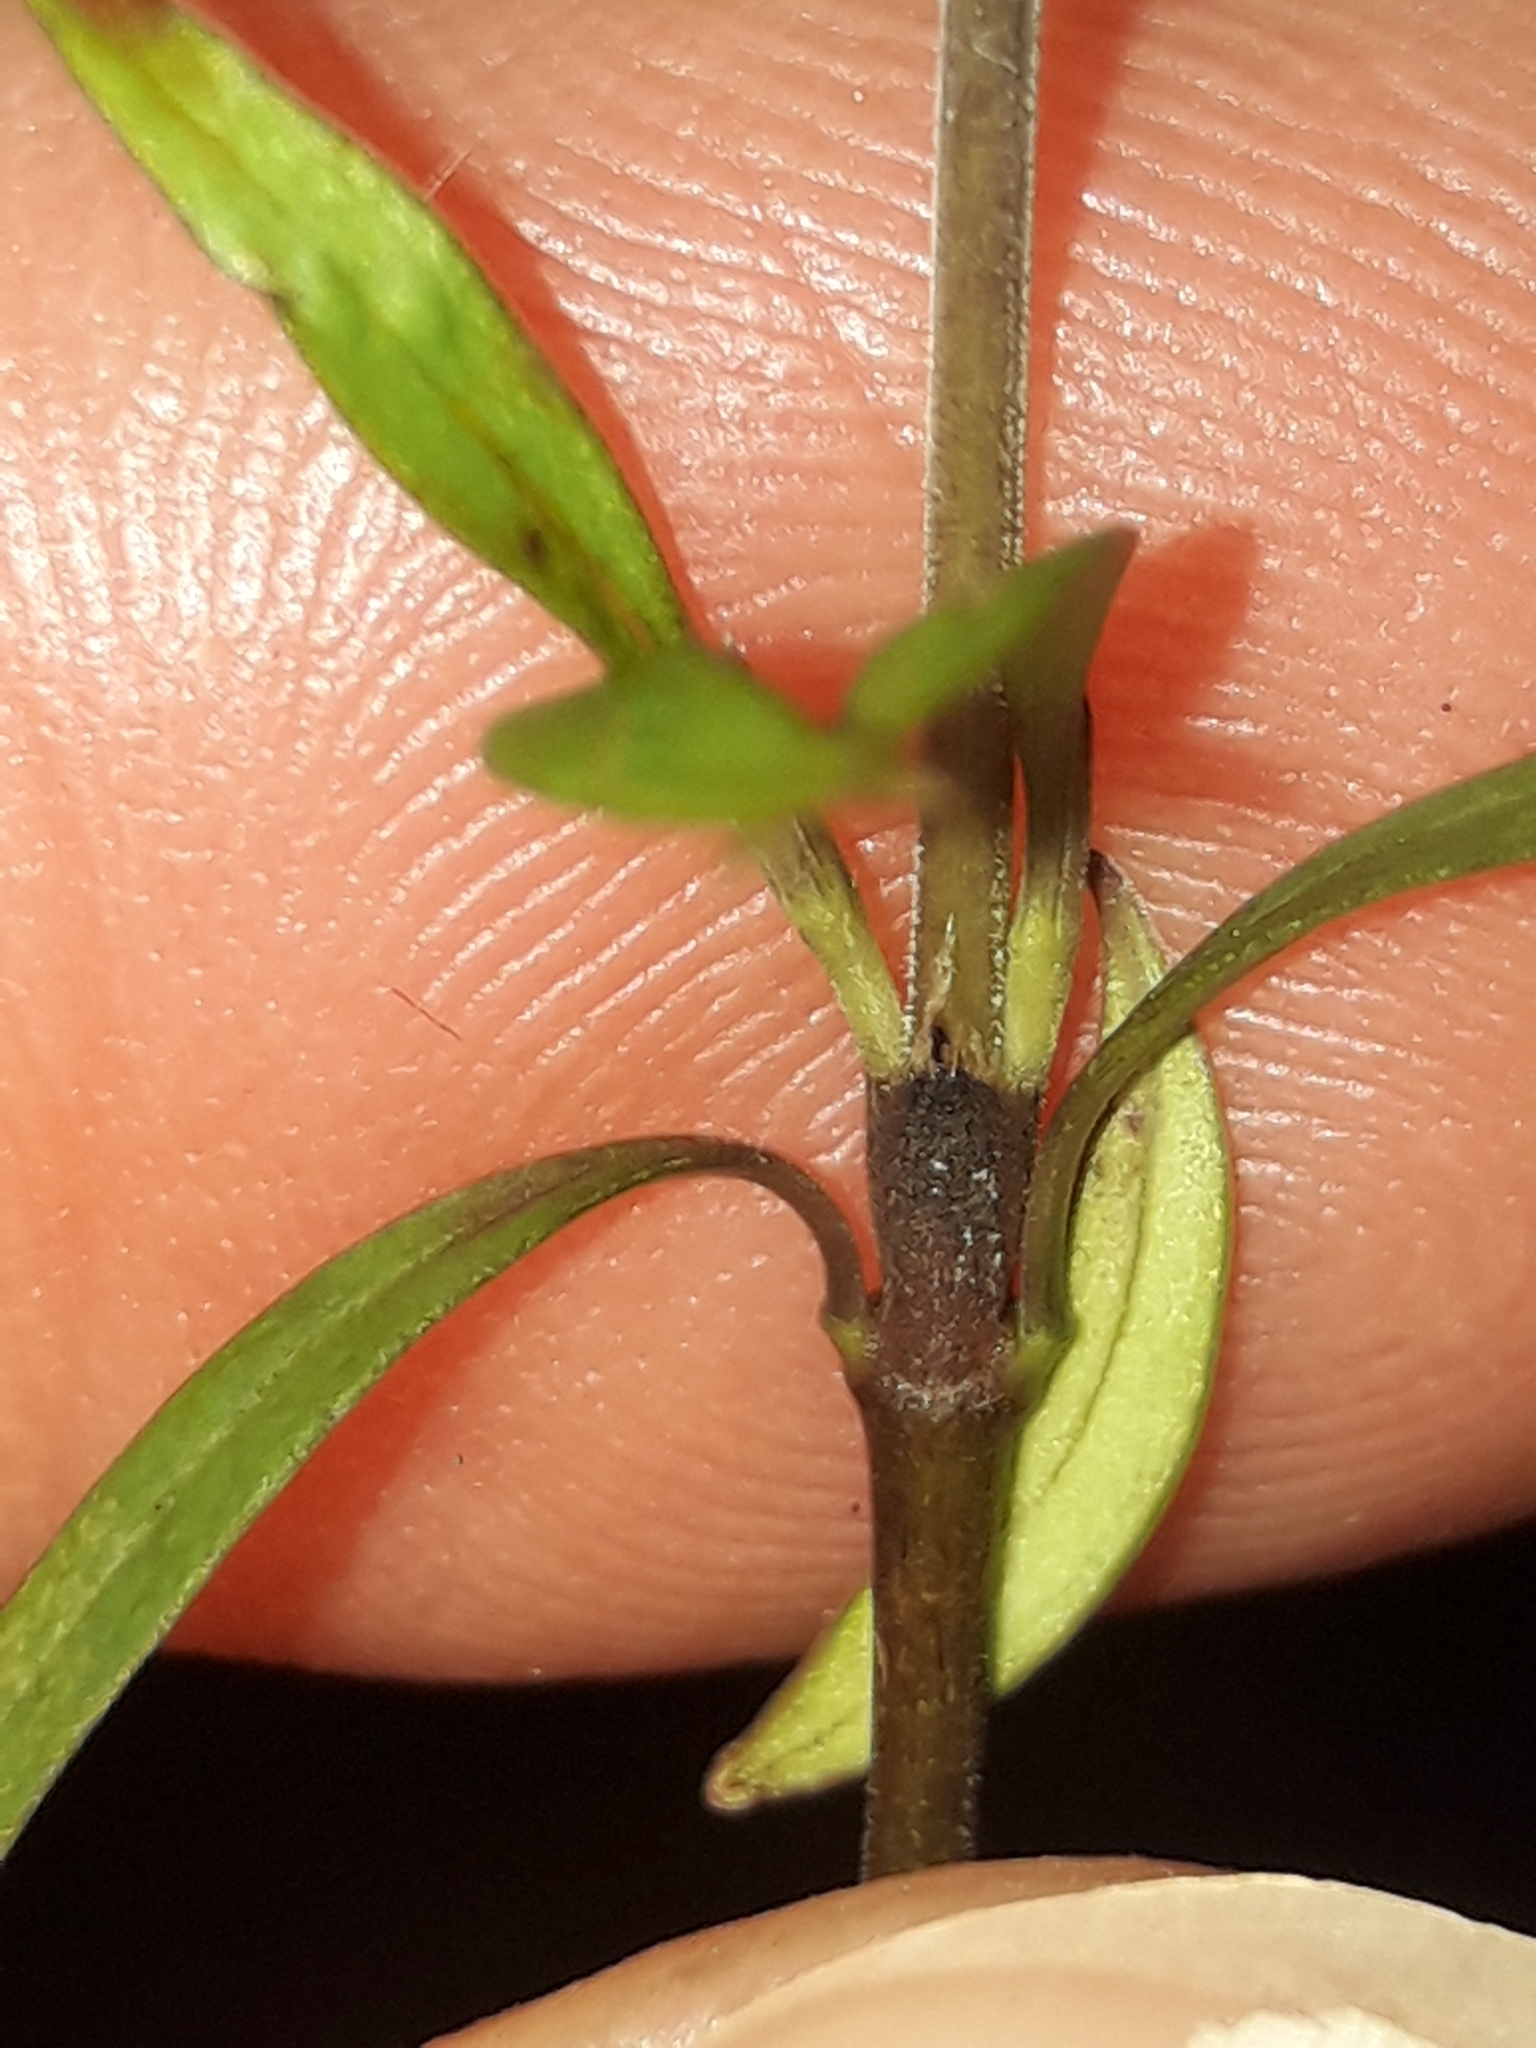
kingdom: Plantae
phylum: Tracheophyta
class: Magnoliopsida
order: Gentianales
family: Rubiaceae
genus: Coprosma
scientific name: Coprosma linariifolia
